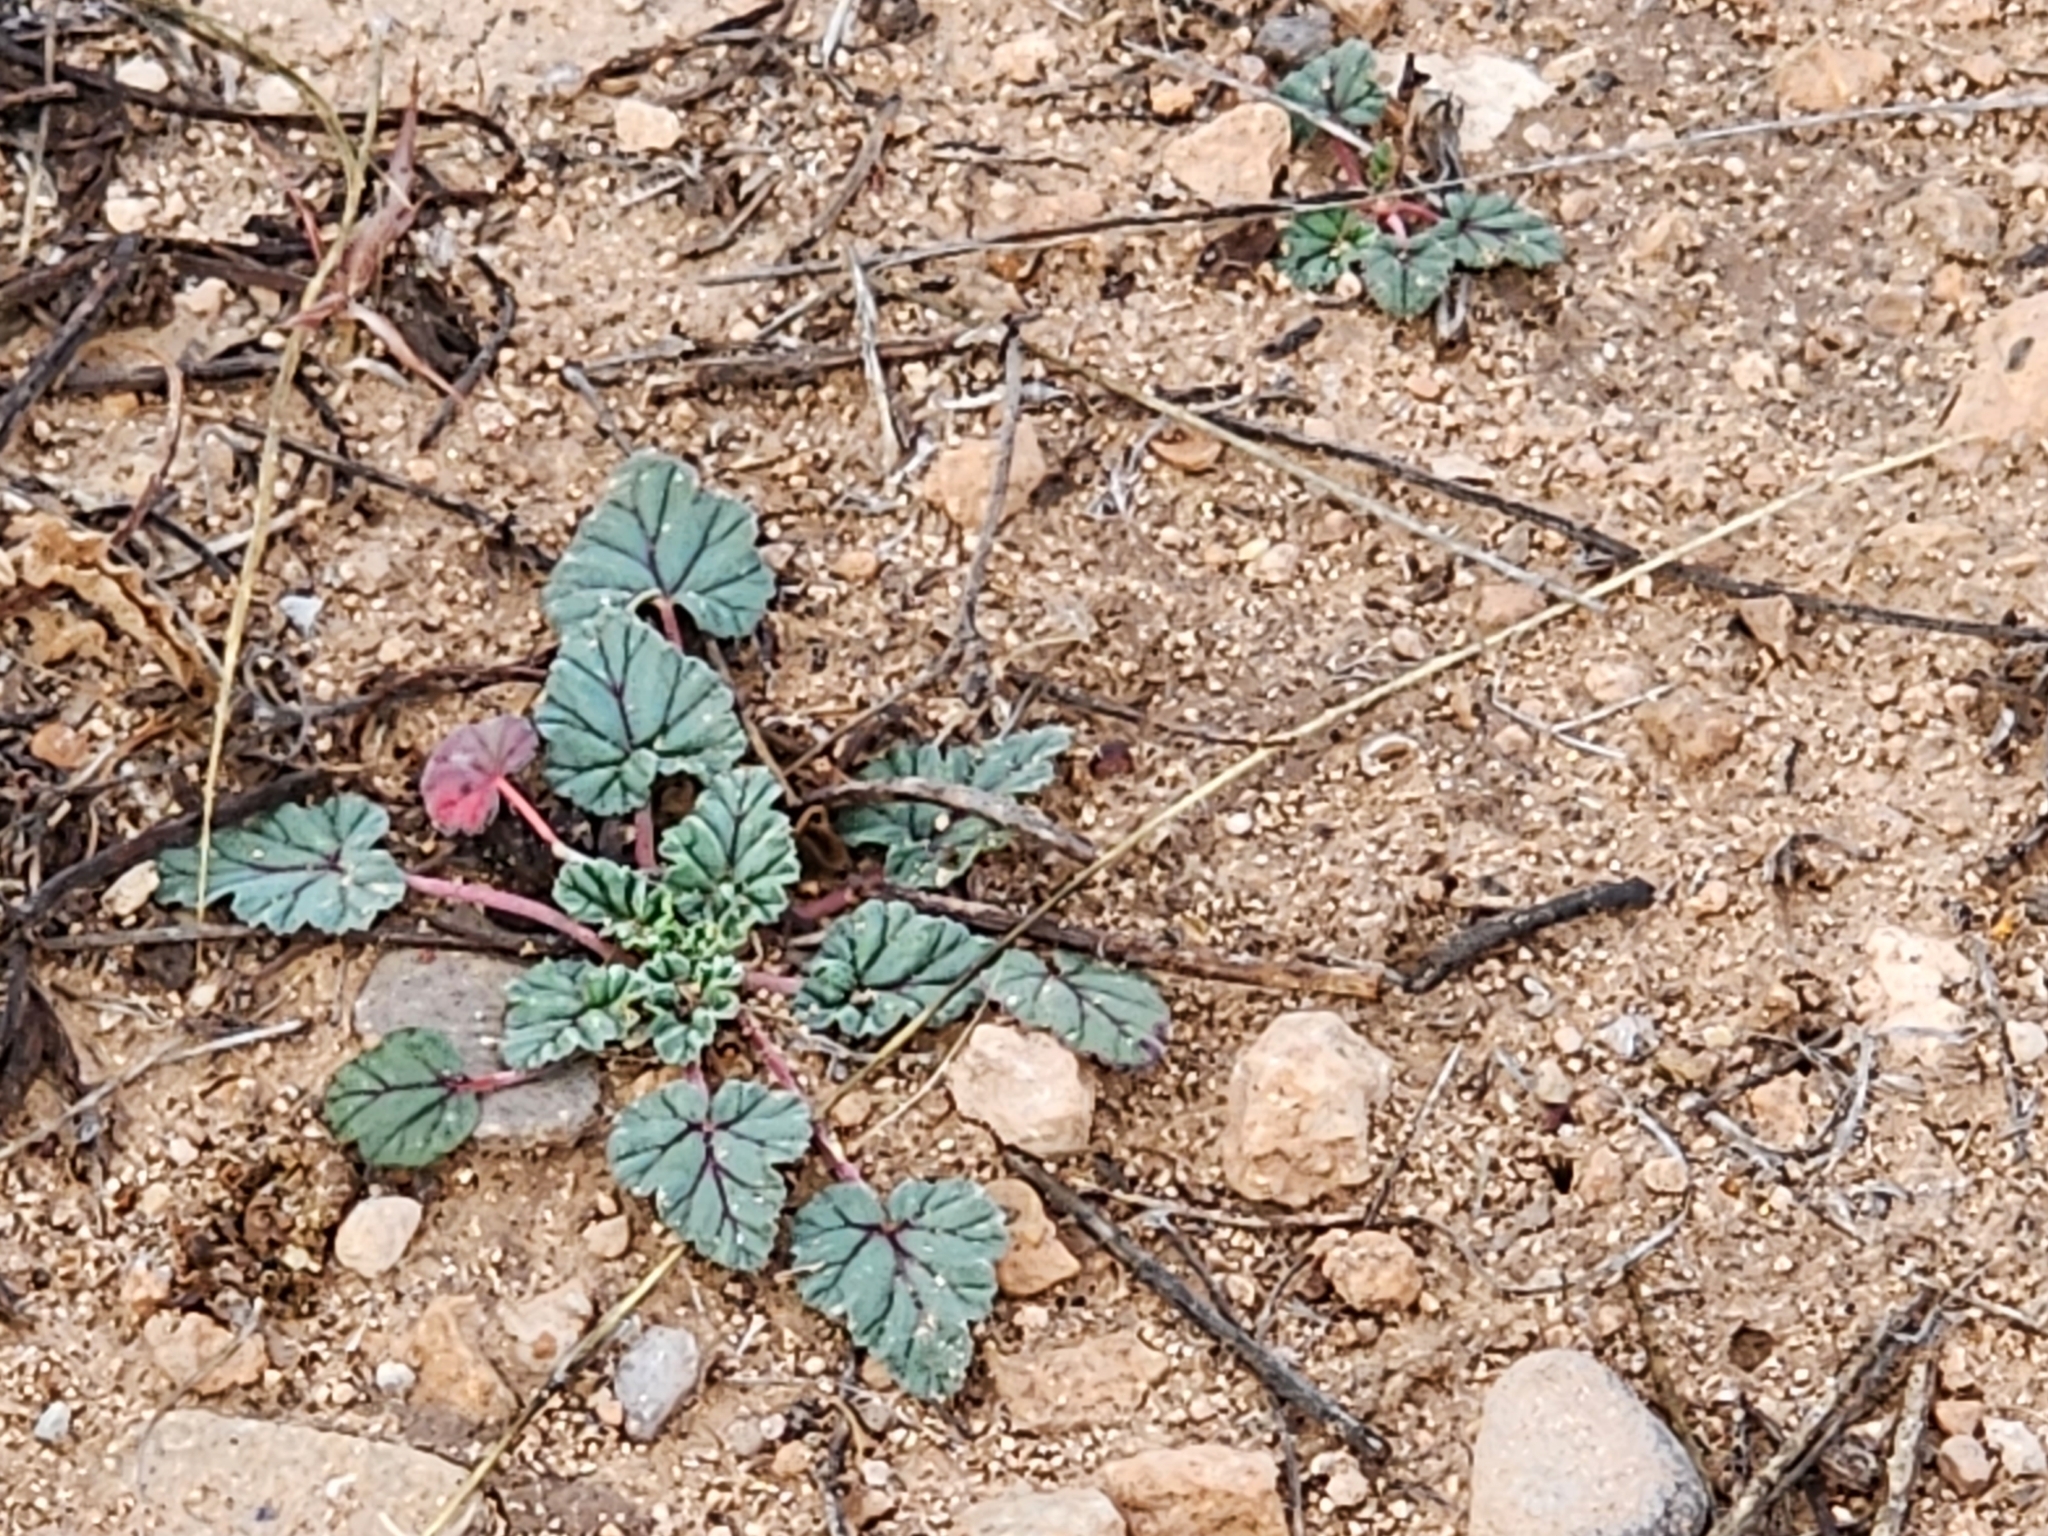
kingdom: Plantae
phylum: Tracheophyta
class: Magnoliopsida
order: Geraniales
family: Geraniaceae
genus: Erodium
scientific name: Erodium texanum
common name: Texas stork's-bill
